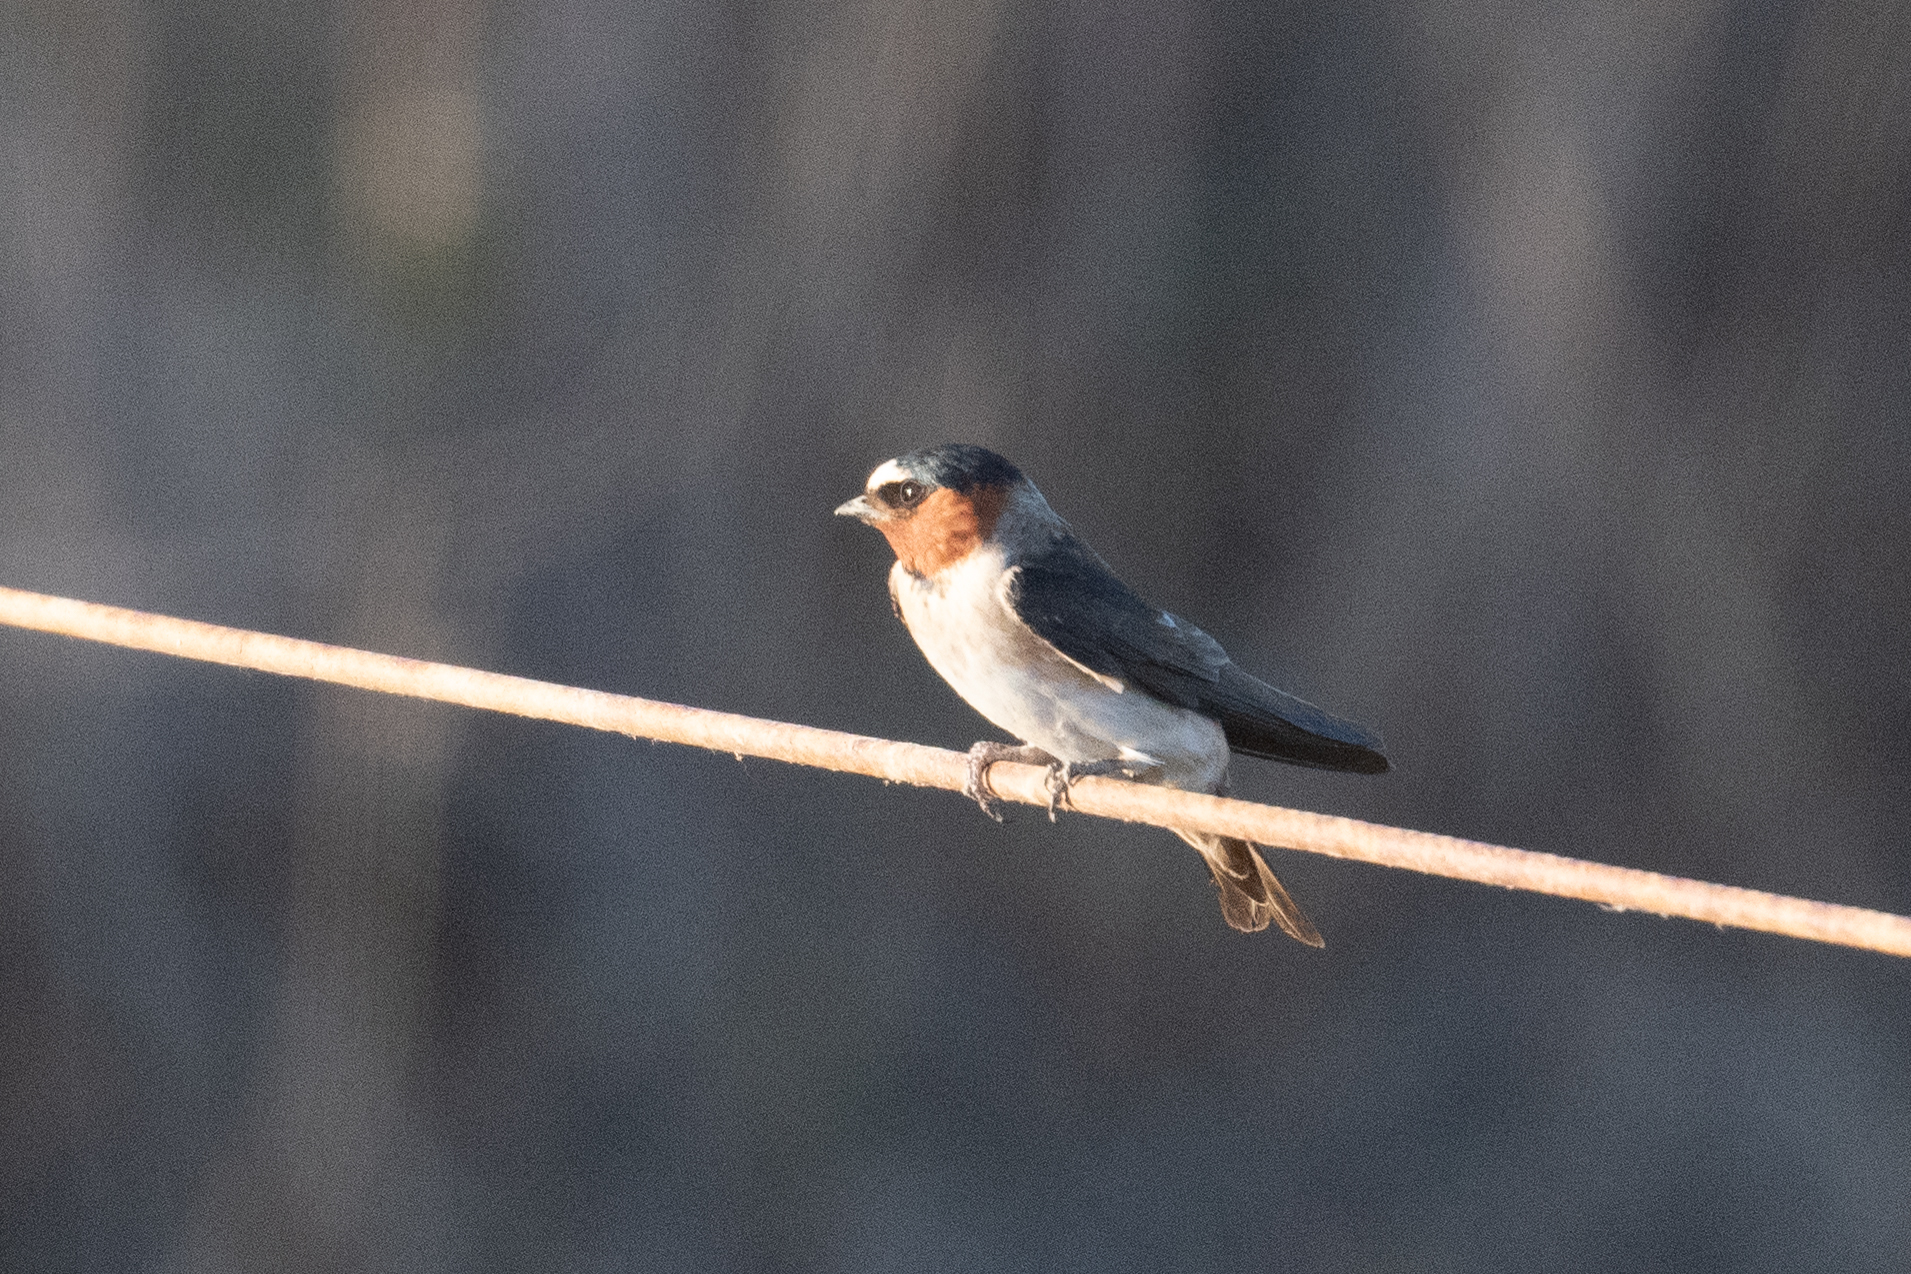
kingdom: Animalia
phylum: Chordata
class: Aves
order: Passeriformes
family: Hirundinidae
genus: Petrochelidon
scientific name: Petrochelidon pyrrhonota
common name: American cliff swallow
